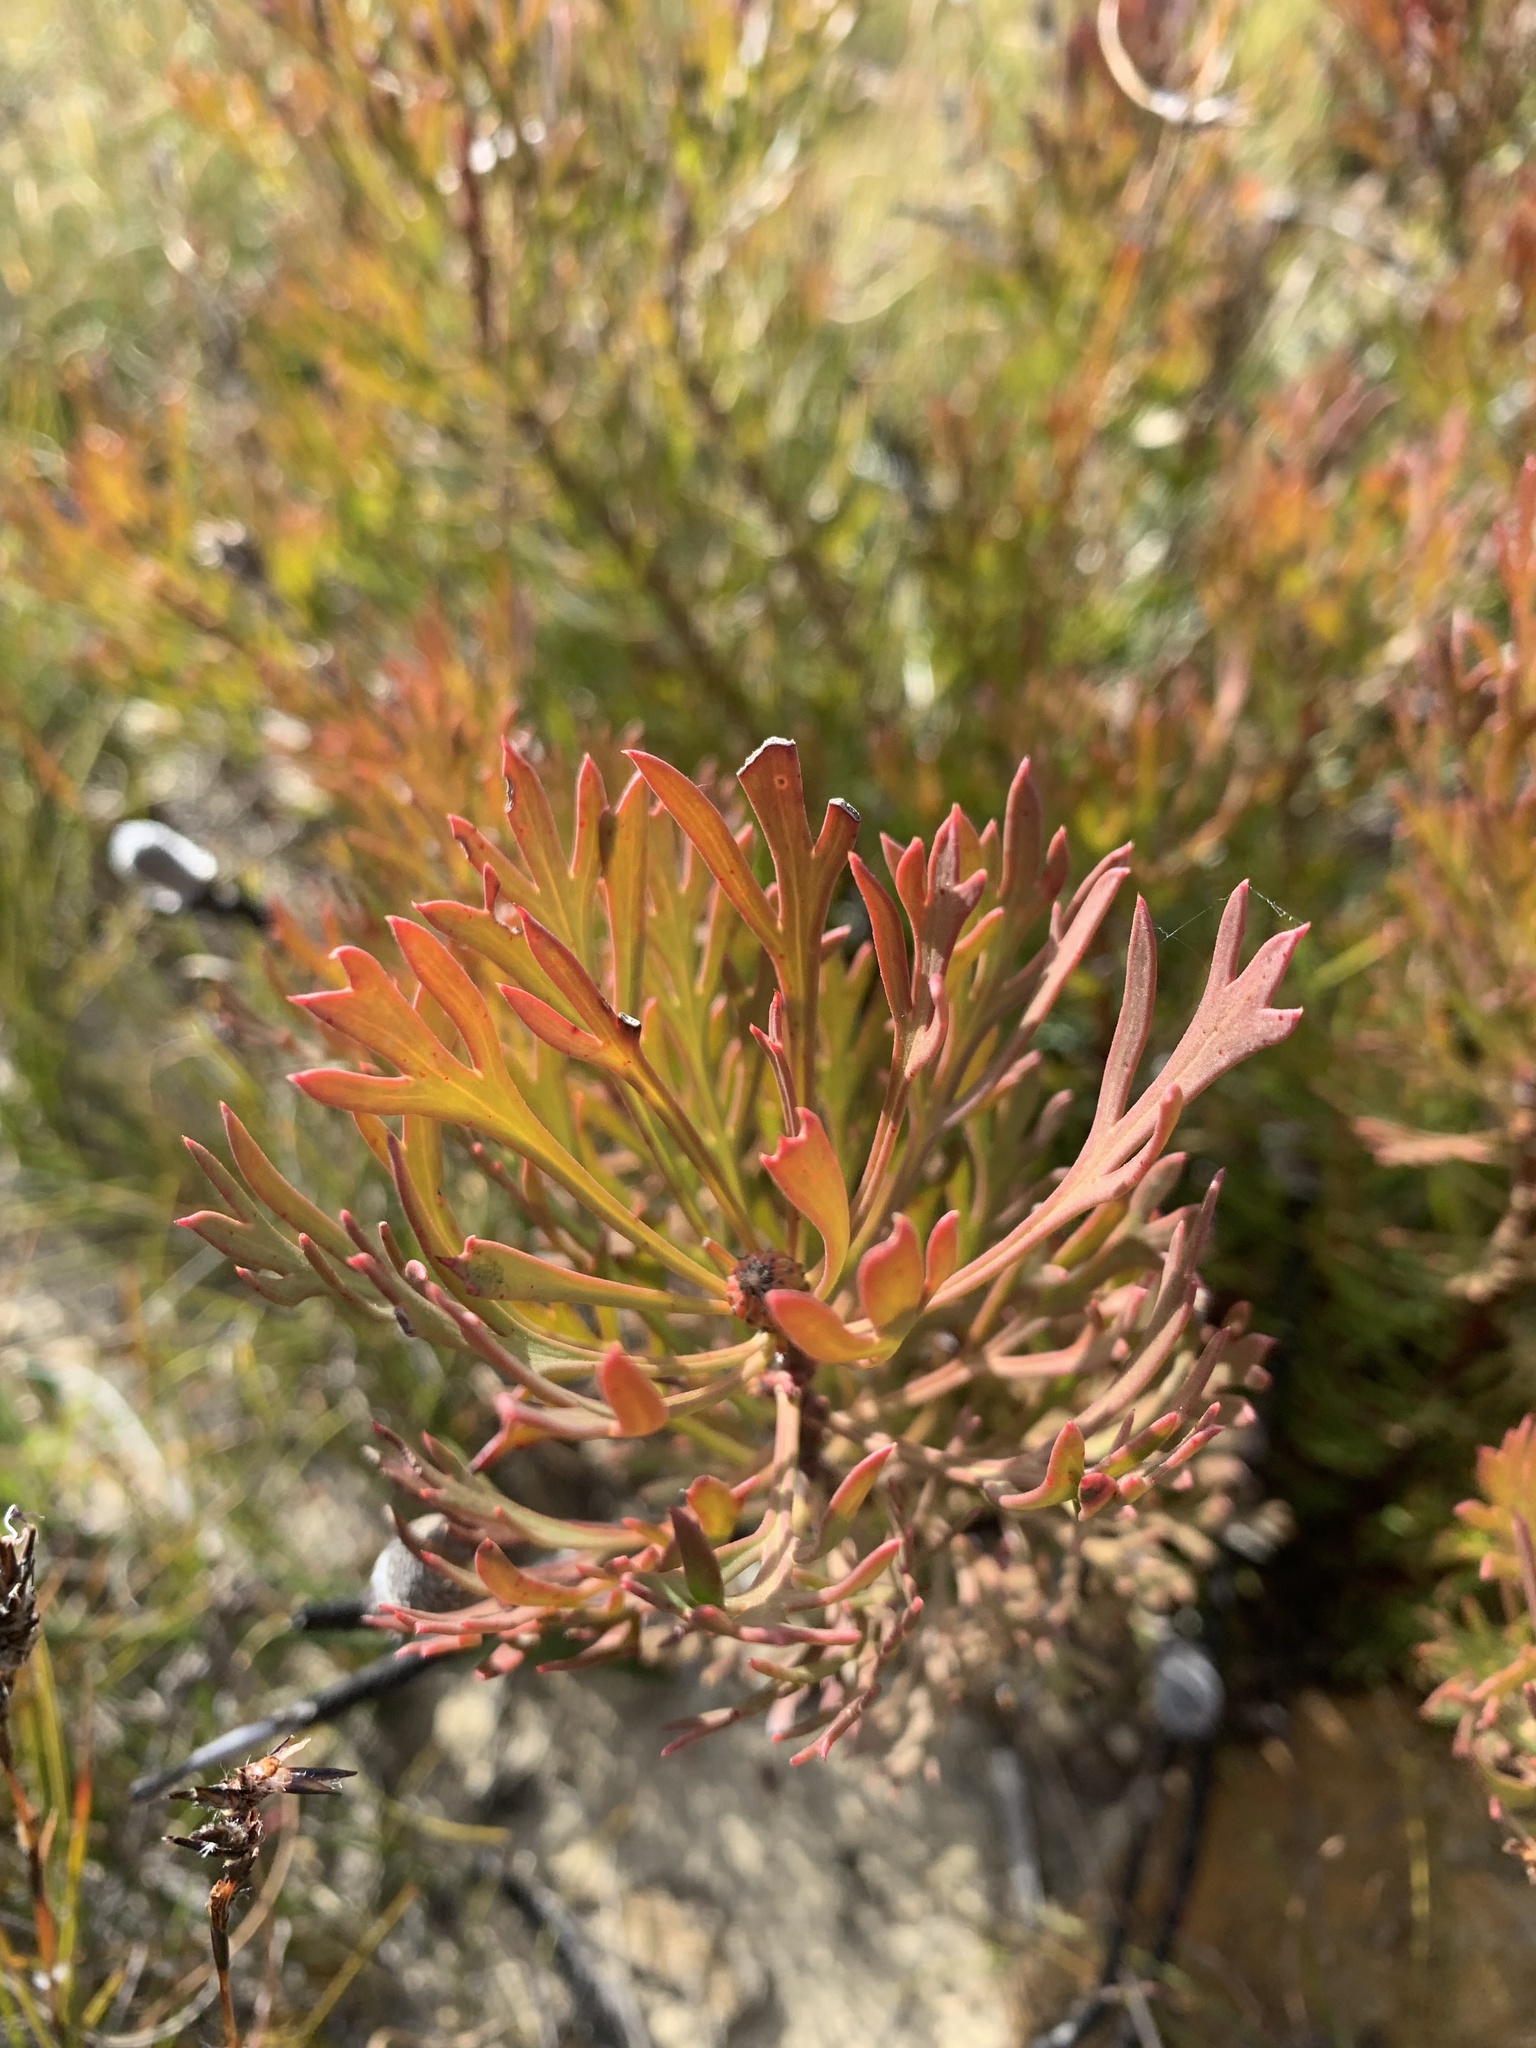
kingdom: Plantae
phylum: Tracheophyta
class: Magnoliopsida
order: Proteales
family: Proteaceae
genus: Isopogon
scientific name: Isopogon anemonifolius
